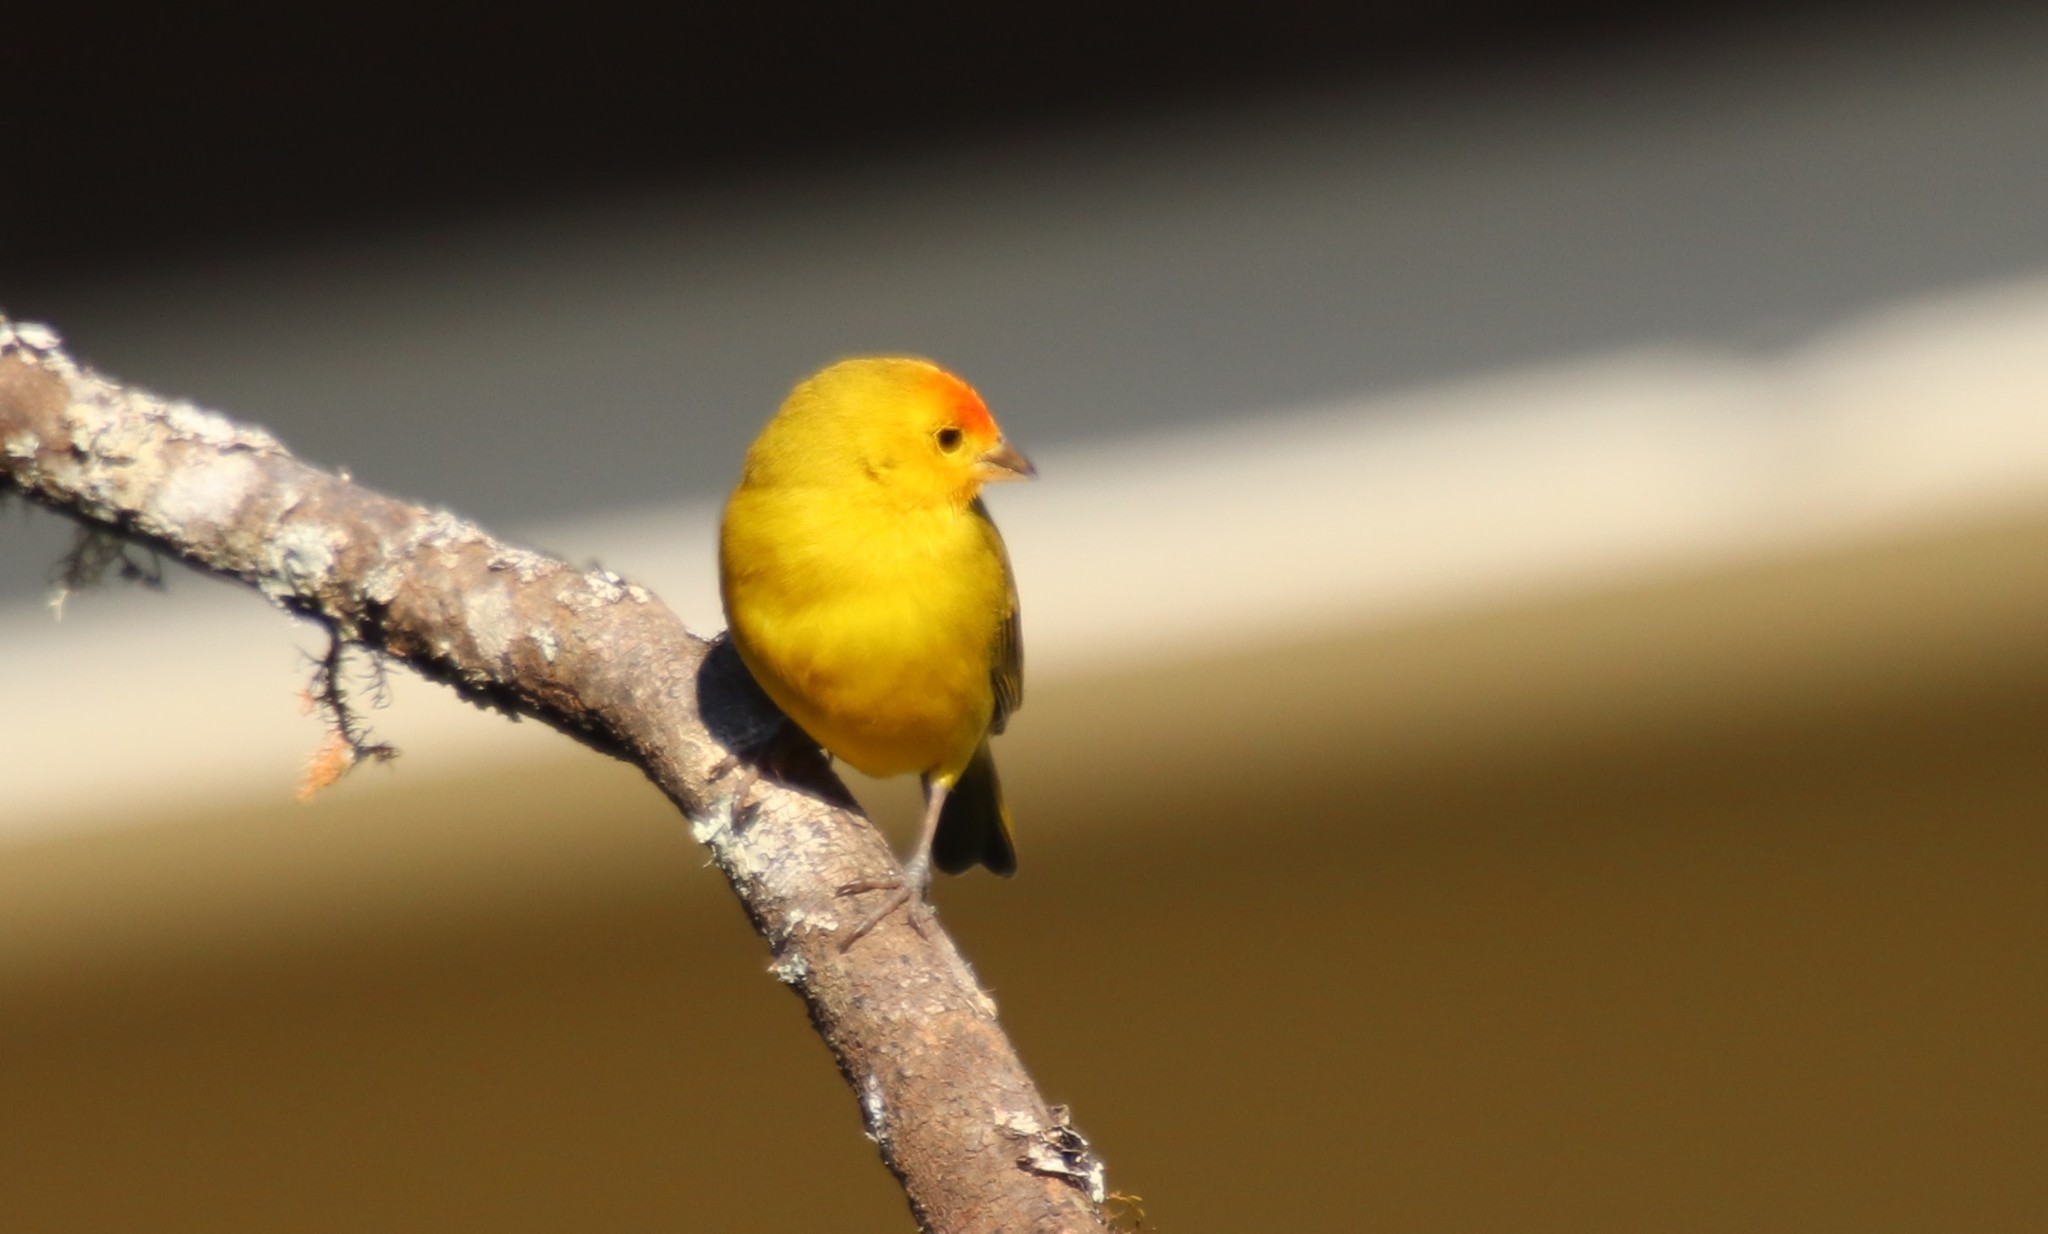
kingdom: Animalia
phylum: Chordata
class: Aves
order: Passeriformes
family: Thraupidae
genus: Sicalis
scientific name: Sicalis flaveola
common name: Saffron finch
